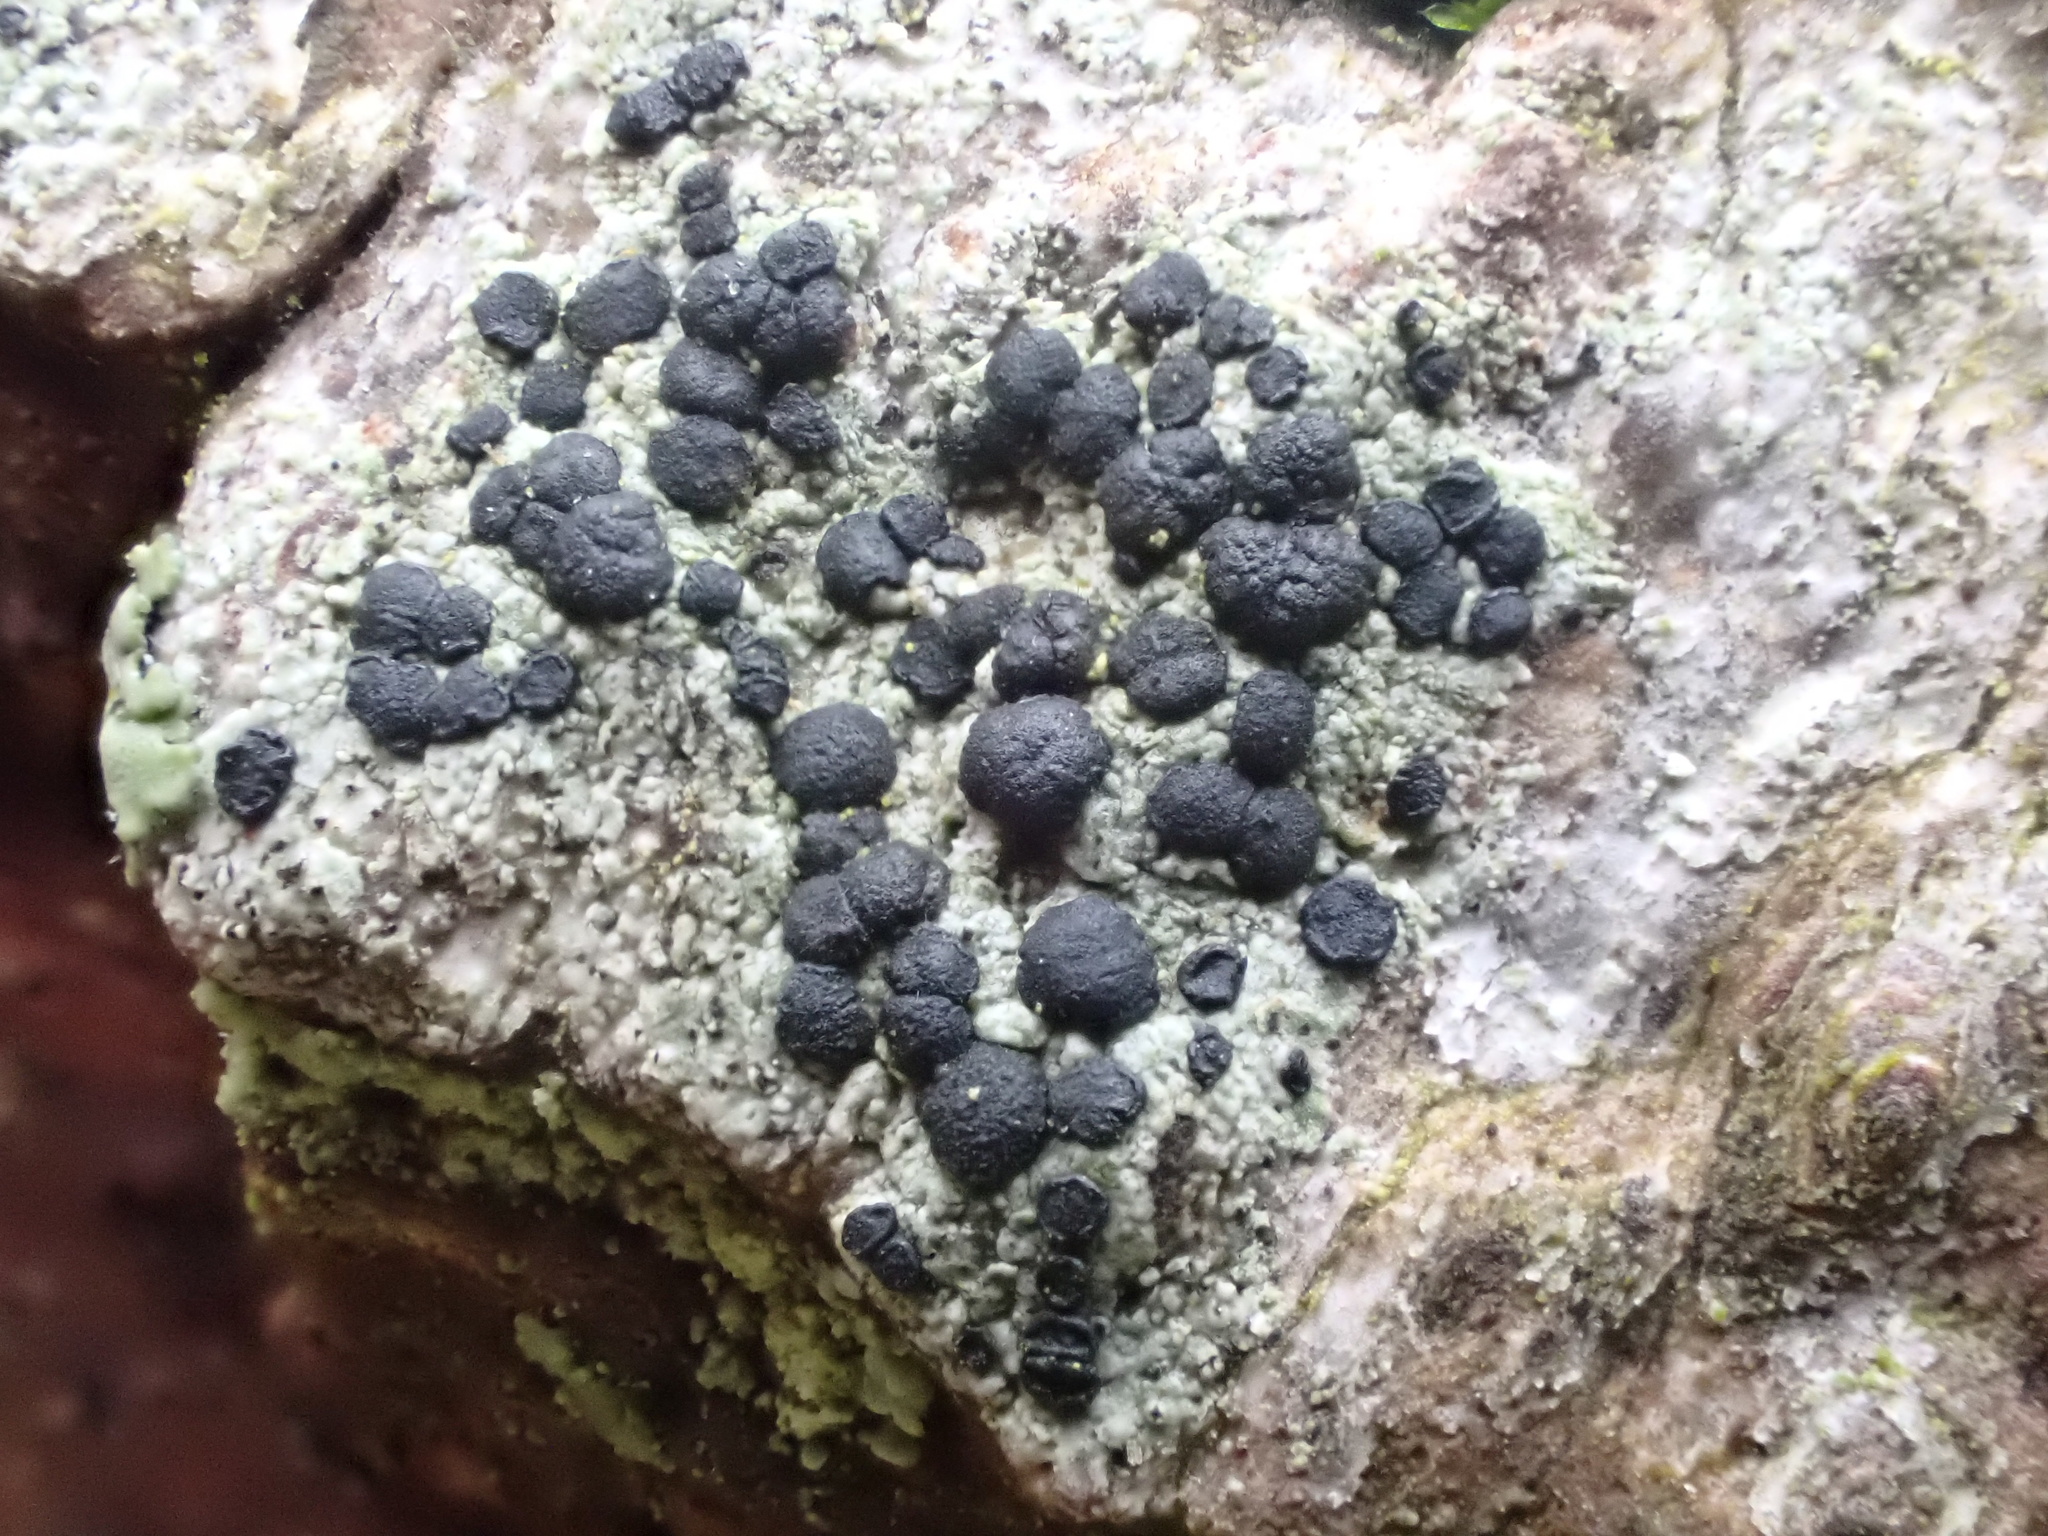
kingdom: Fungi
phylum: Ascomycota
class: Lecanoromycetes
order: Lecanorales
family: Lecanoraceae
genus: Lecidella
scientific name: Lecidella elaeochroma
